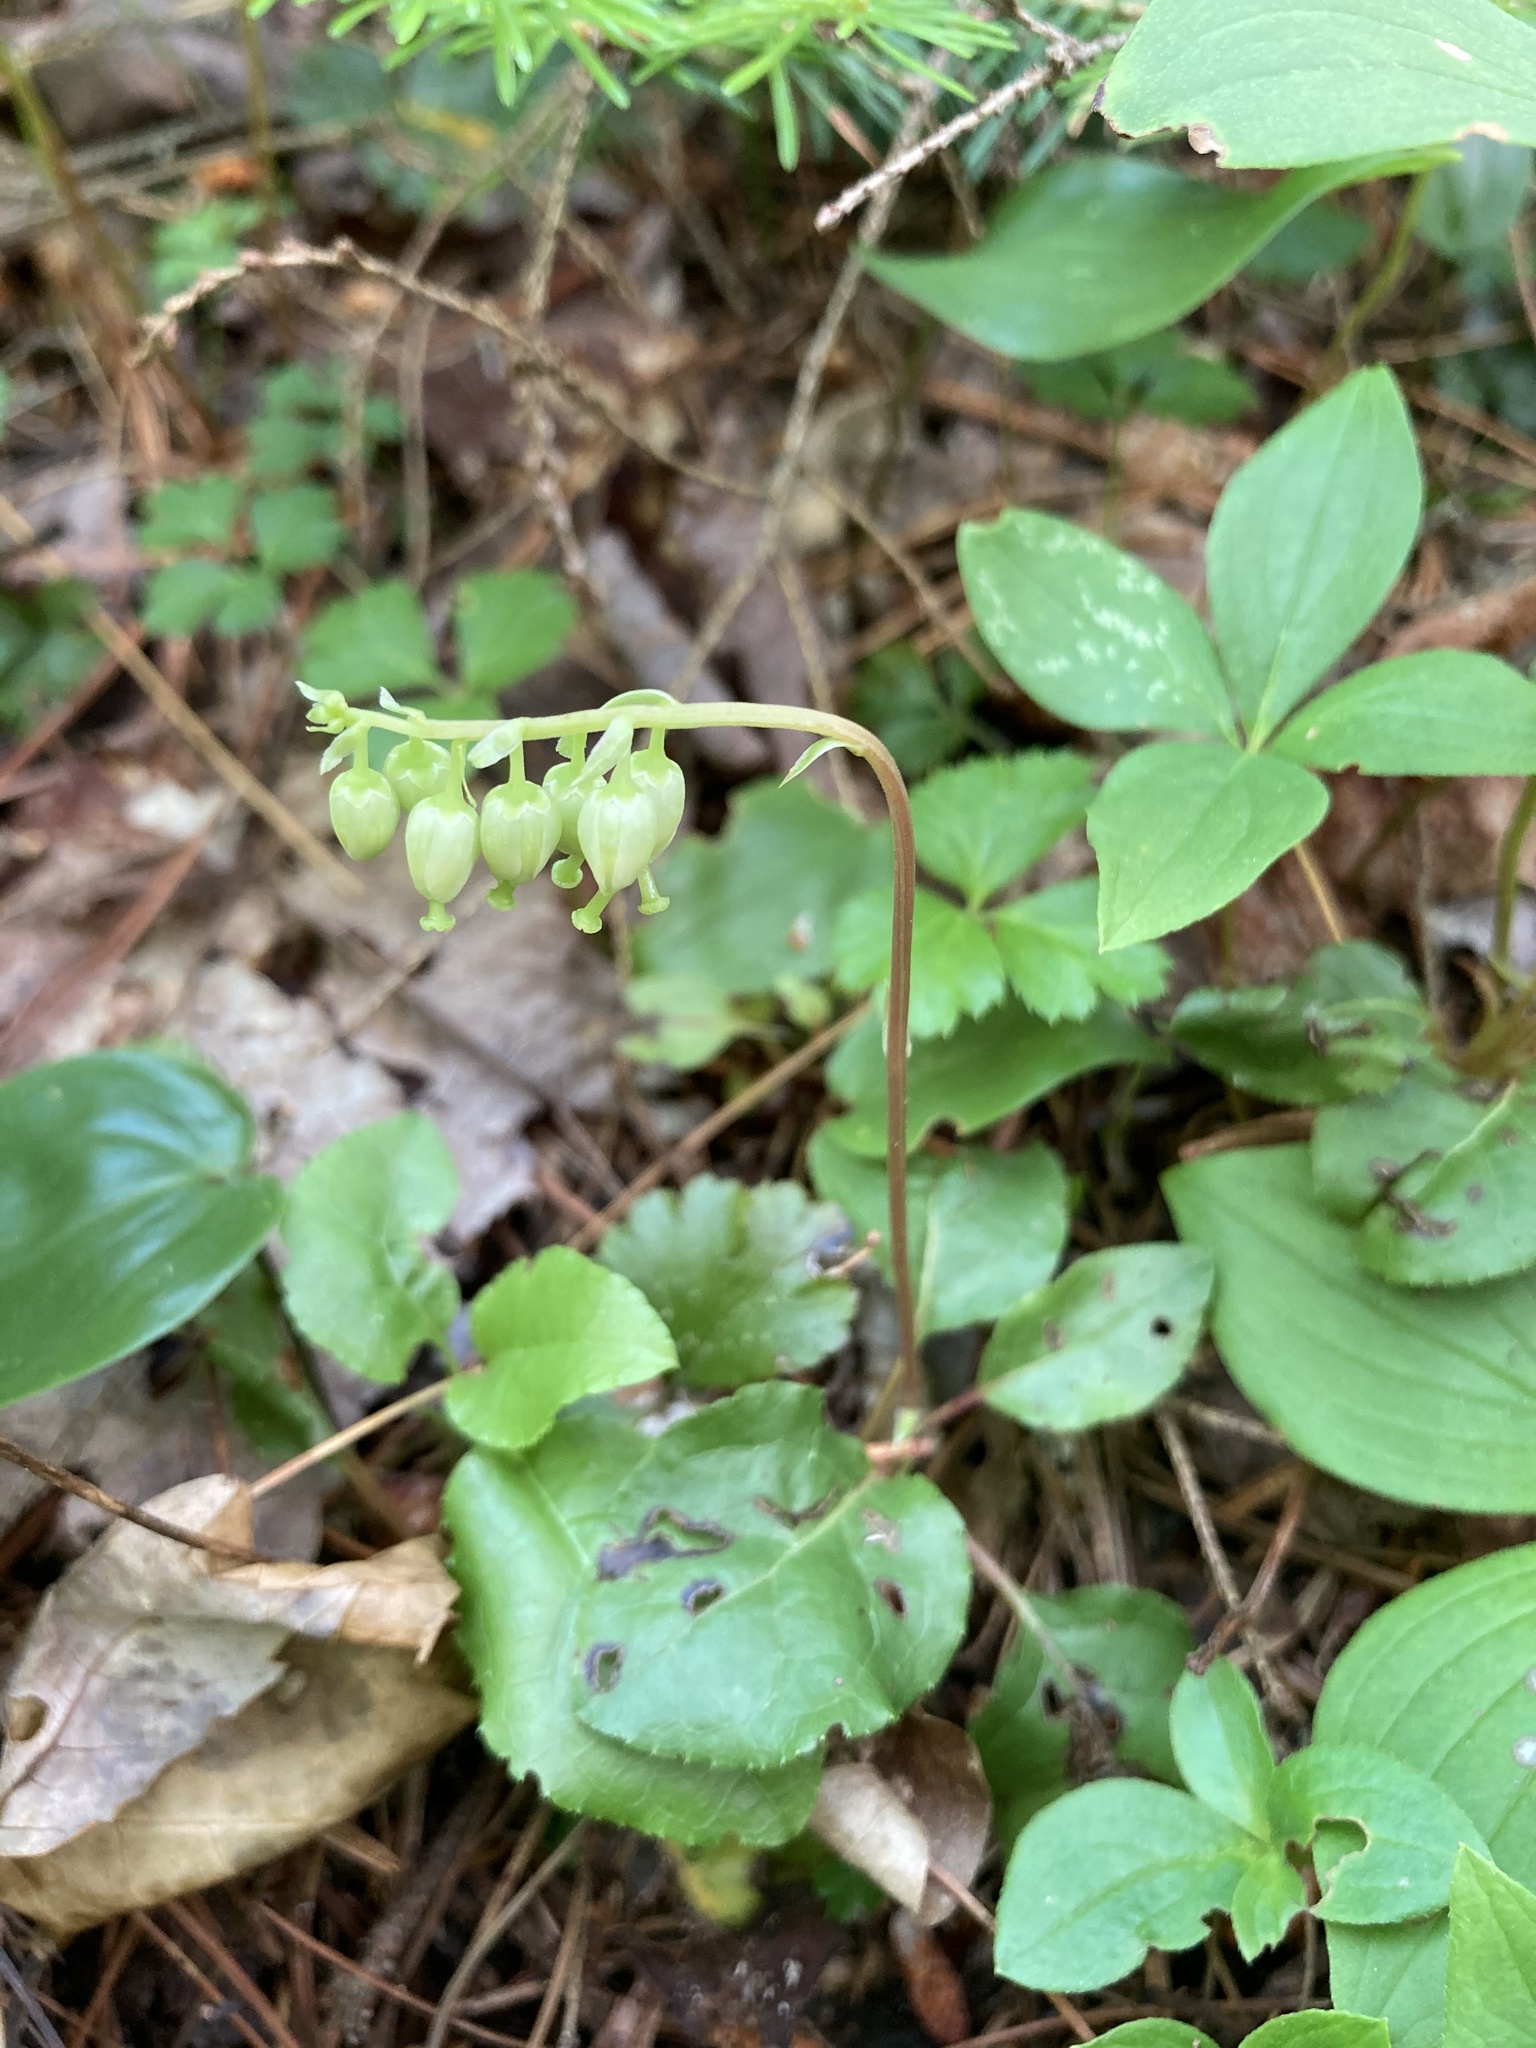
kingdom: Plantae
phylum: Tracheophyta
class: Magnoliopsida
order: Ericales
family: Ericaceae
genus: Orthilia
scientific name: Orthilia secunda
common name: One-sided orthilia
